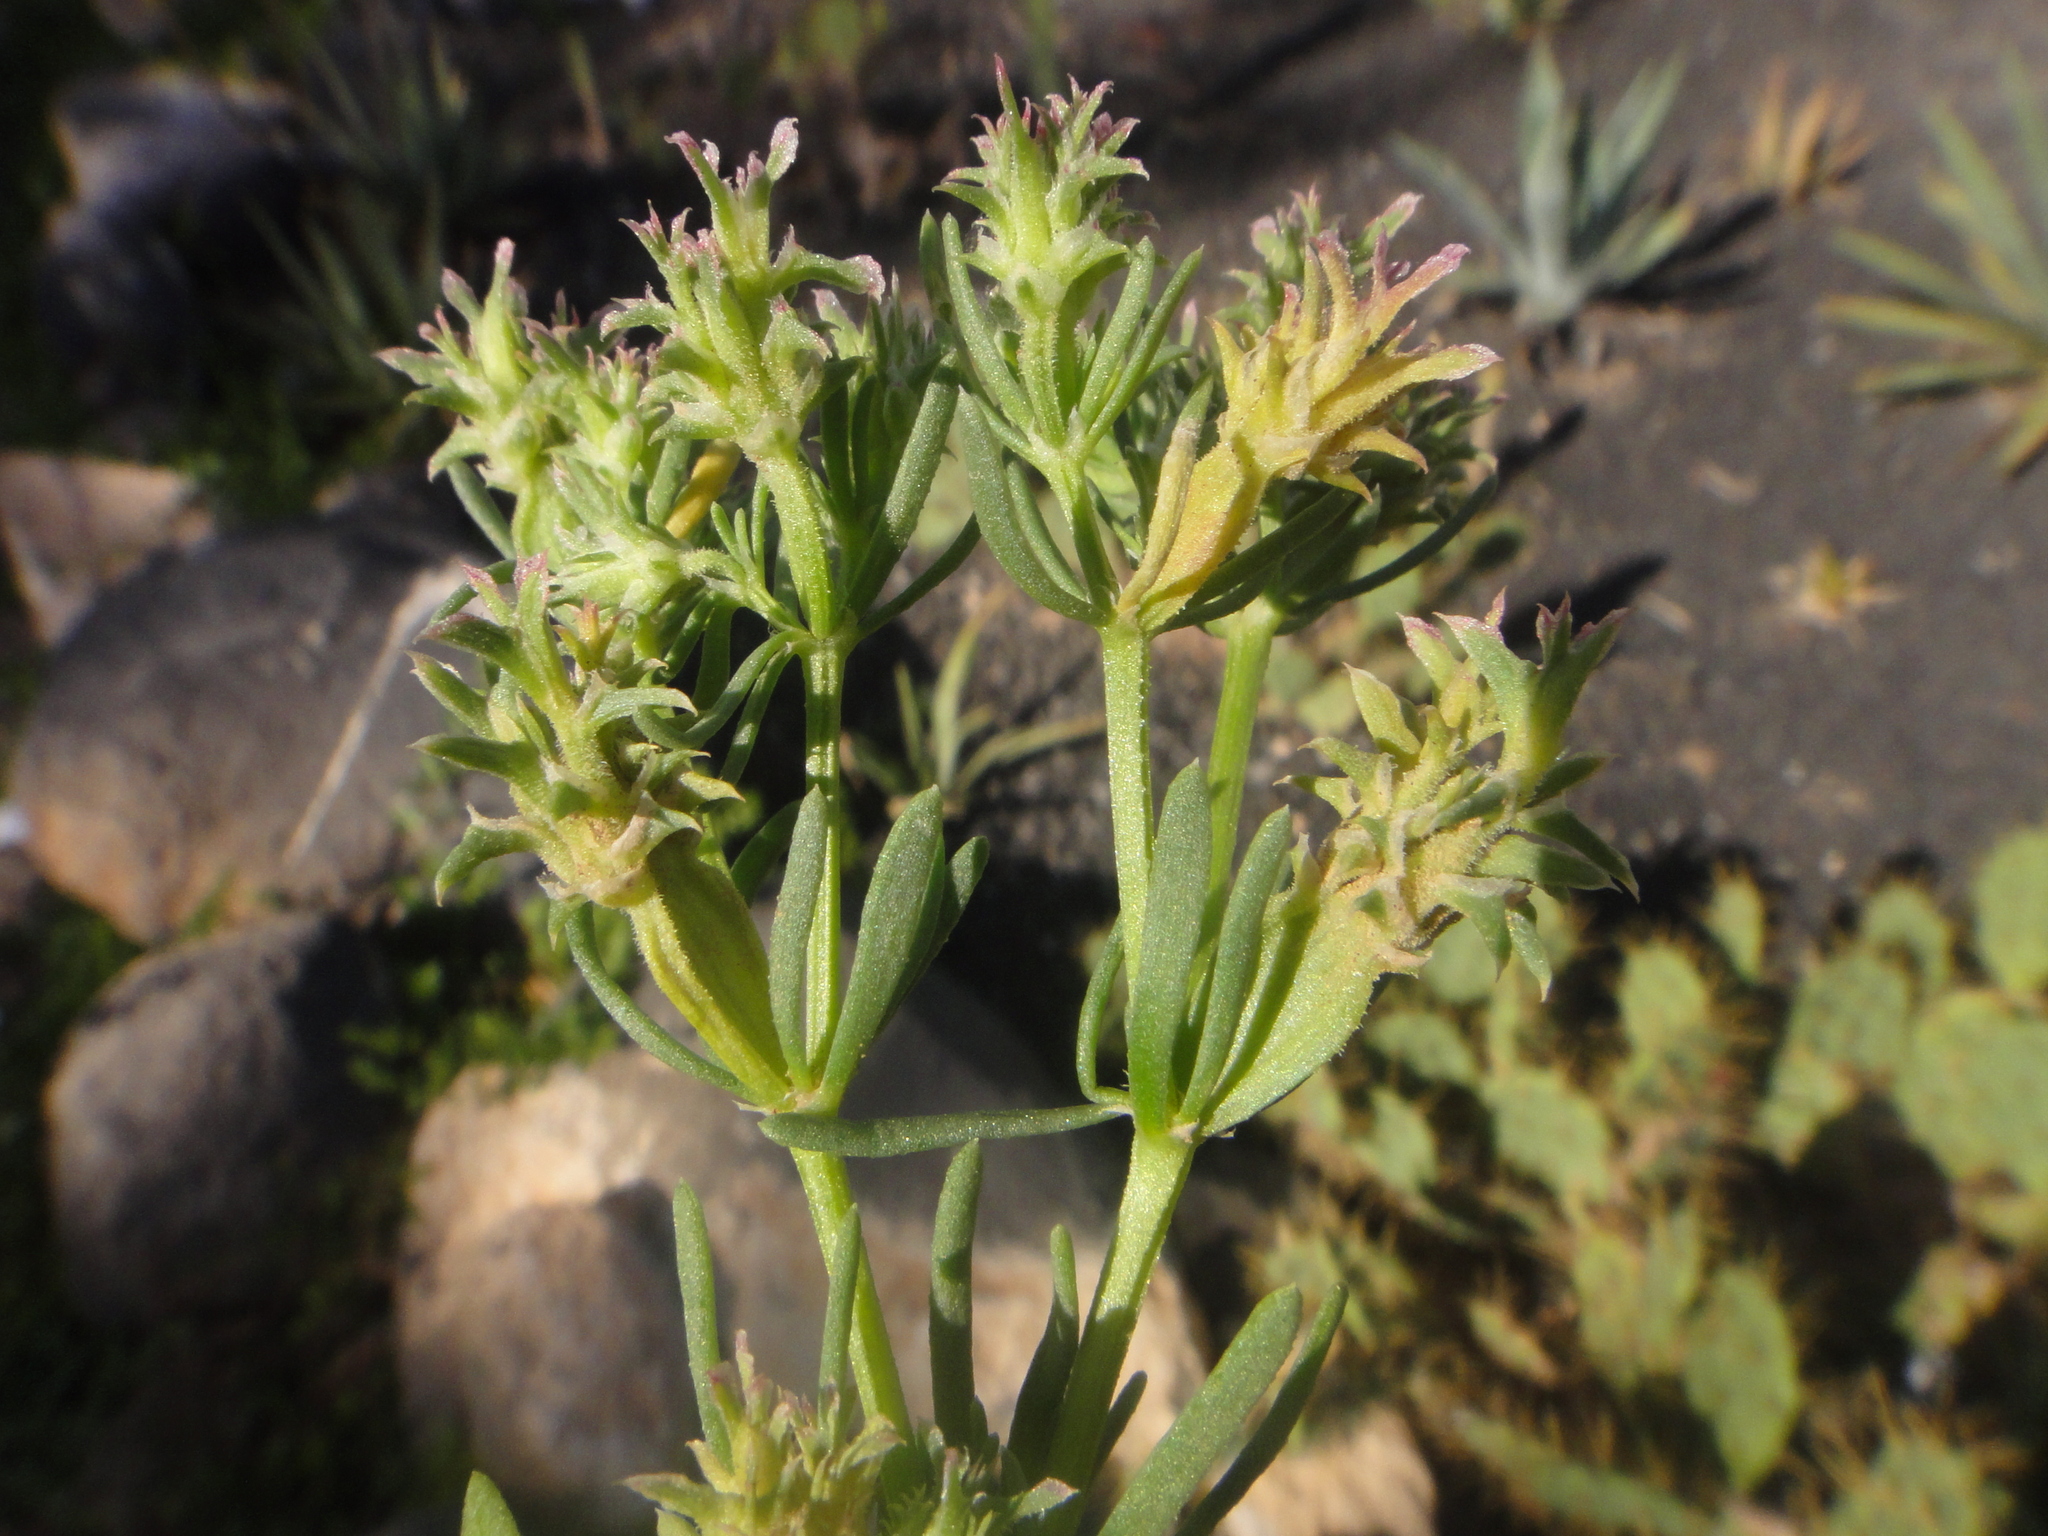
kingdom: Plantae
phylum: Tracheophyta
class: Magnoliopsida
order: Caryophyllales
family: Caryophyllaceae
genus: Pteranthus
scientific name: Pteranthus dichotomus
